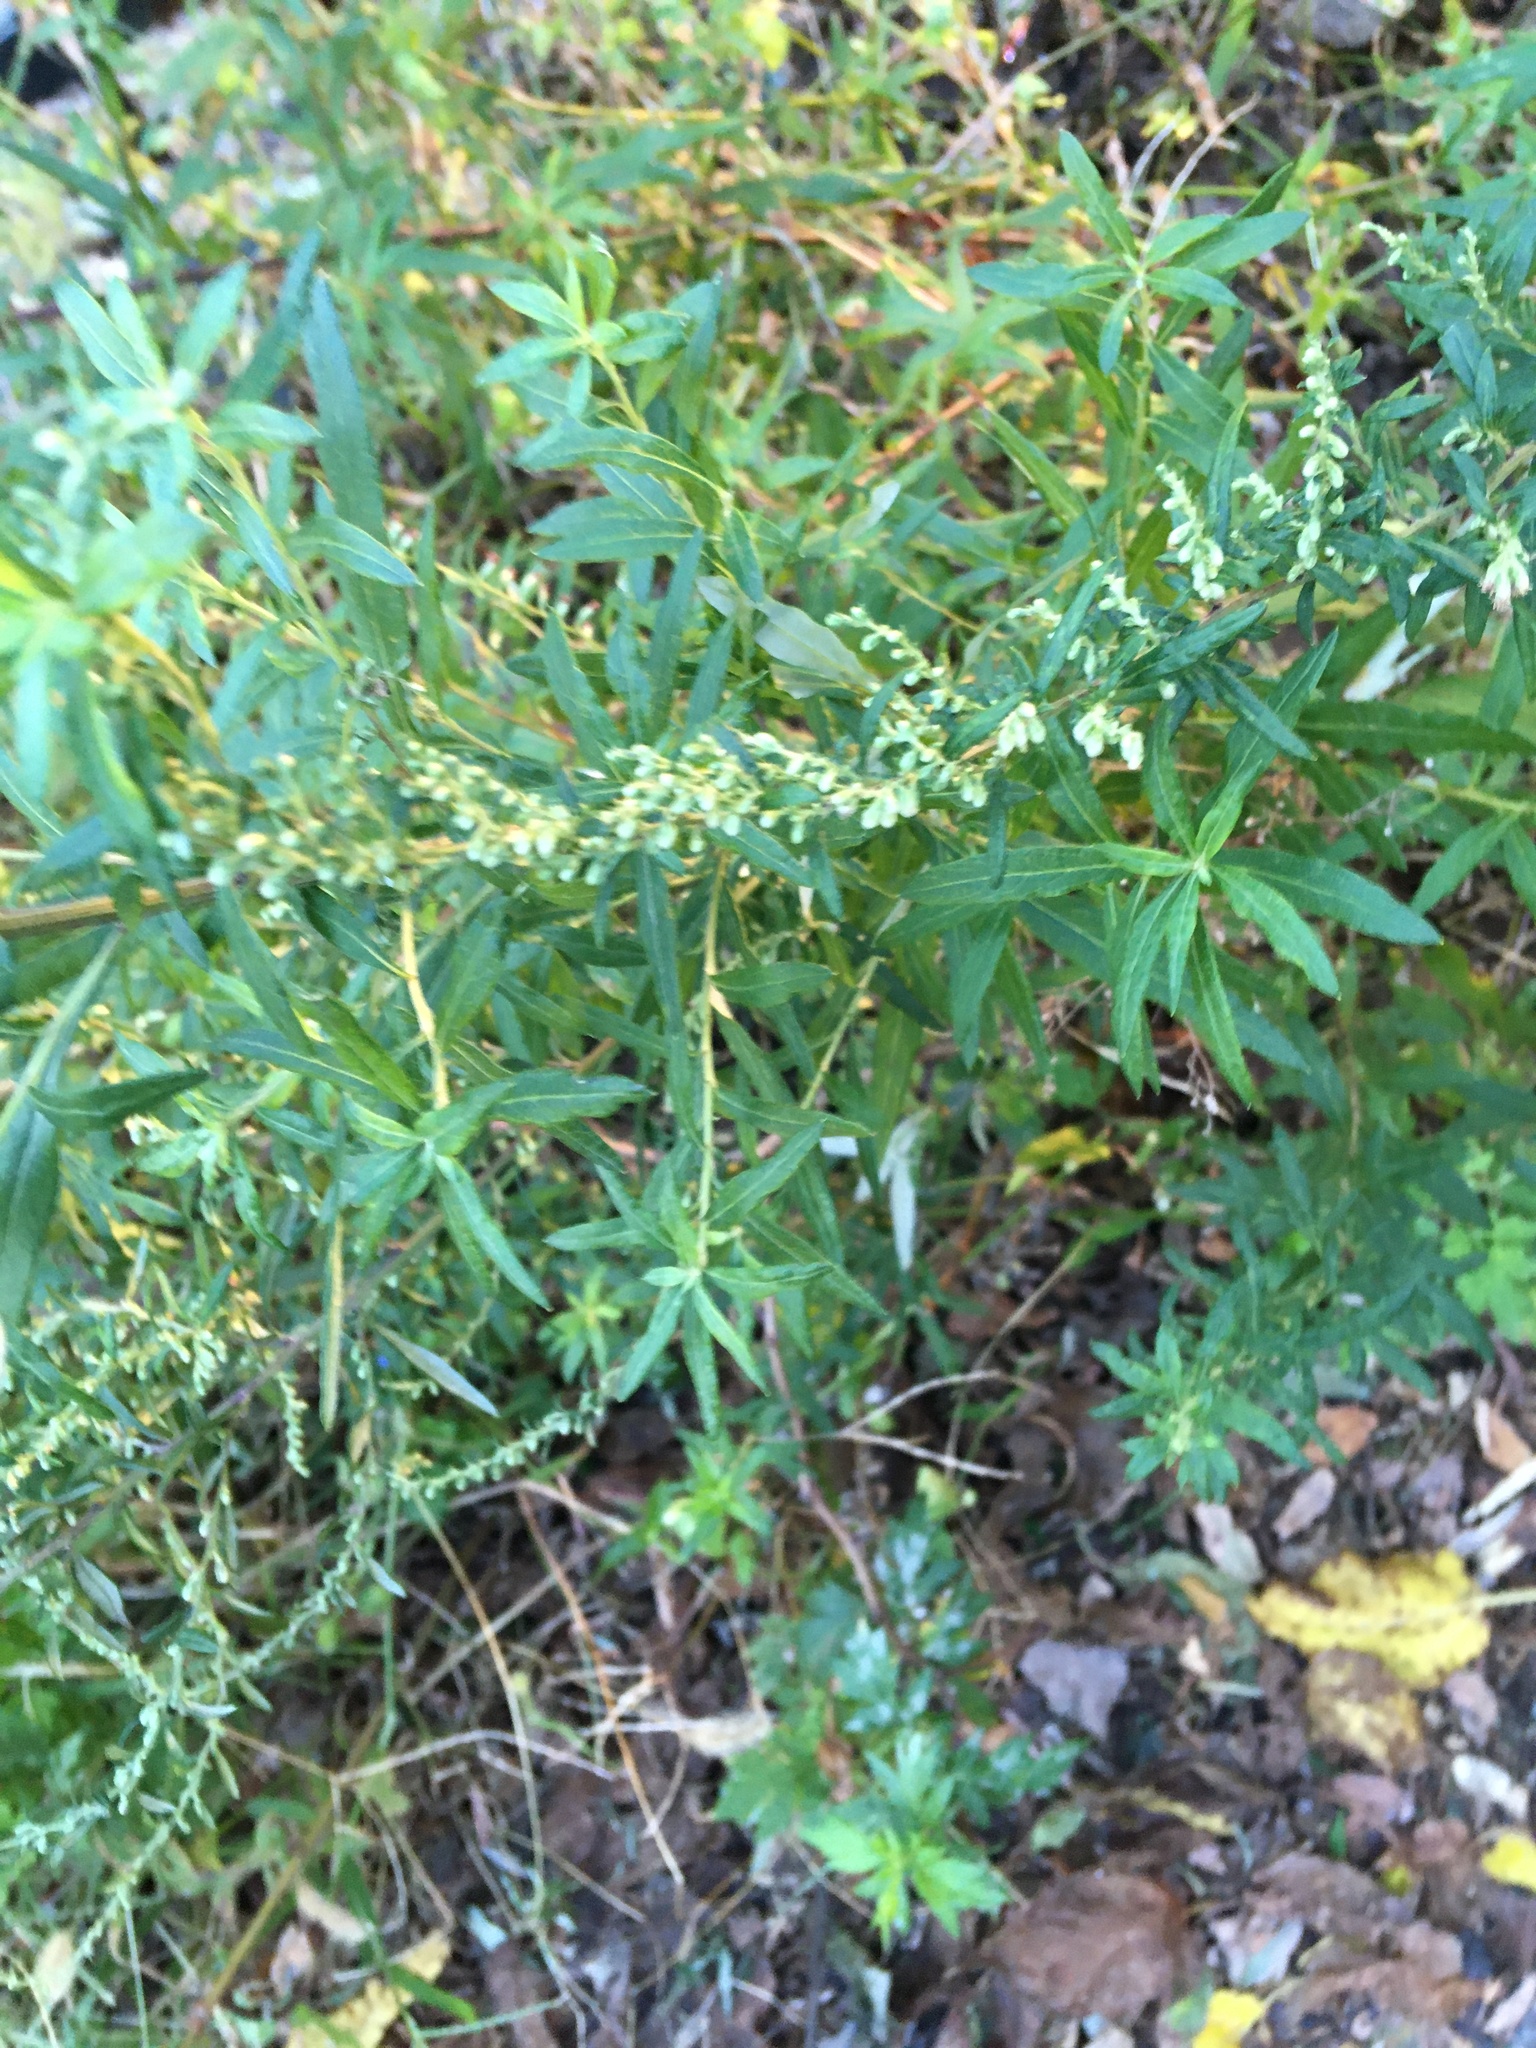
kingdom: Plantae
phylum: Tracheophyta
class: Magnoliopsida
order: Asterales
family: Asteraceae
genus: Artemisia
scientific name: Artemisia vulgaris
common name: Mugwort
